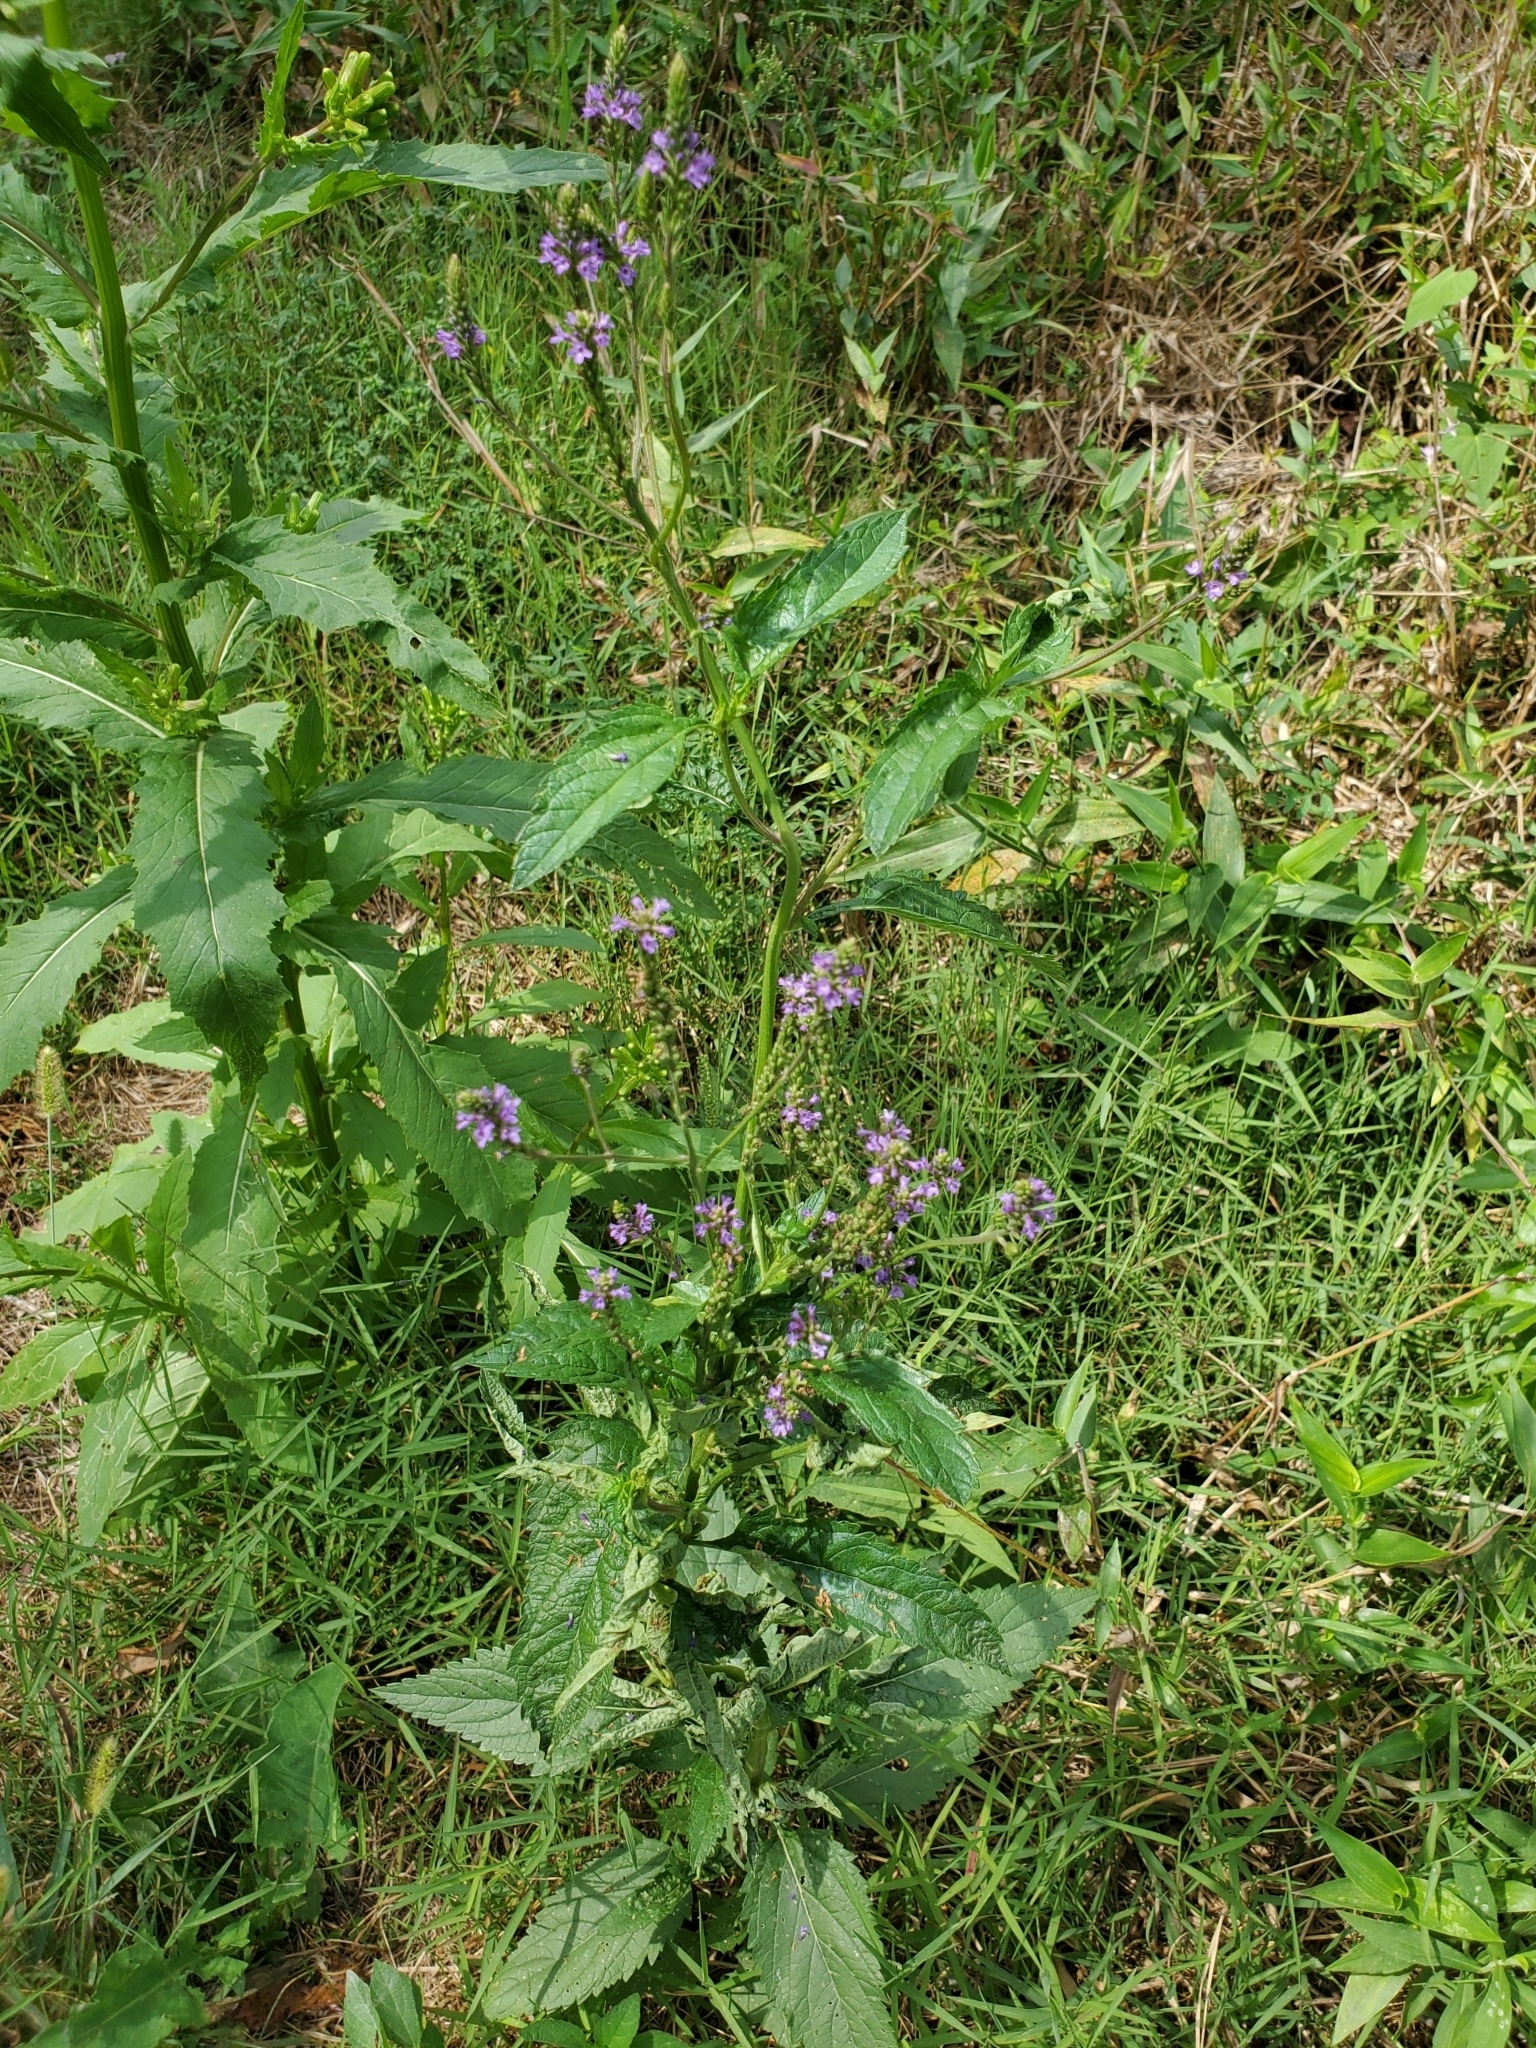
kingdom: Plantae
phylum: Tracheophyta
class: Magnoliopsida
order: Lamiales
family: Verbenaceae
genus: Verbena
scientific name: Verbena hastata
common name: American blue vervain
